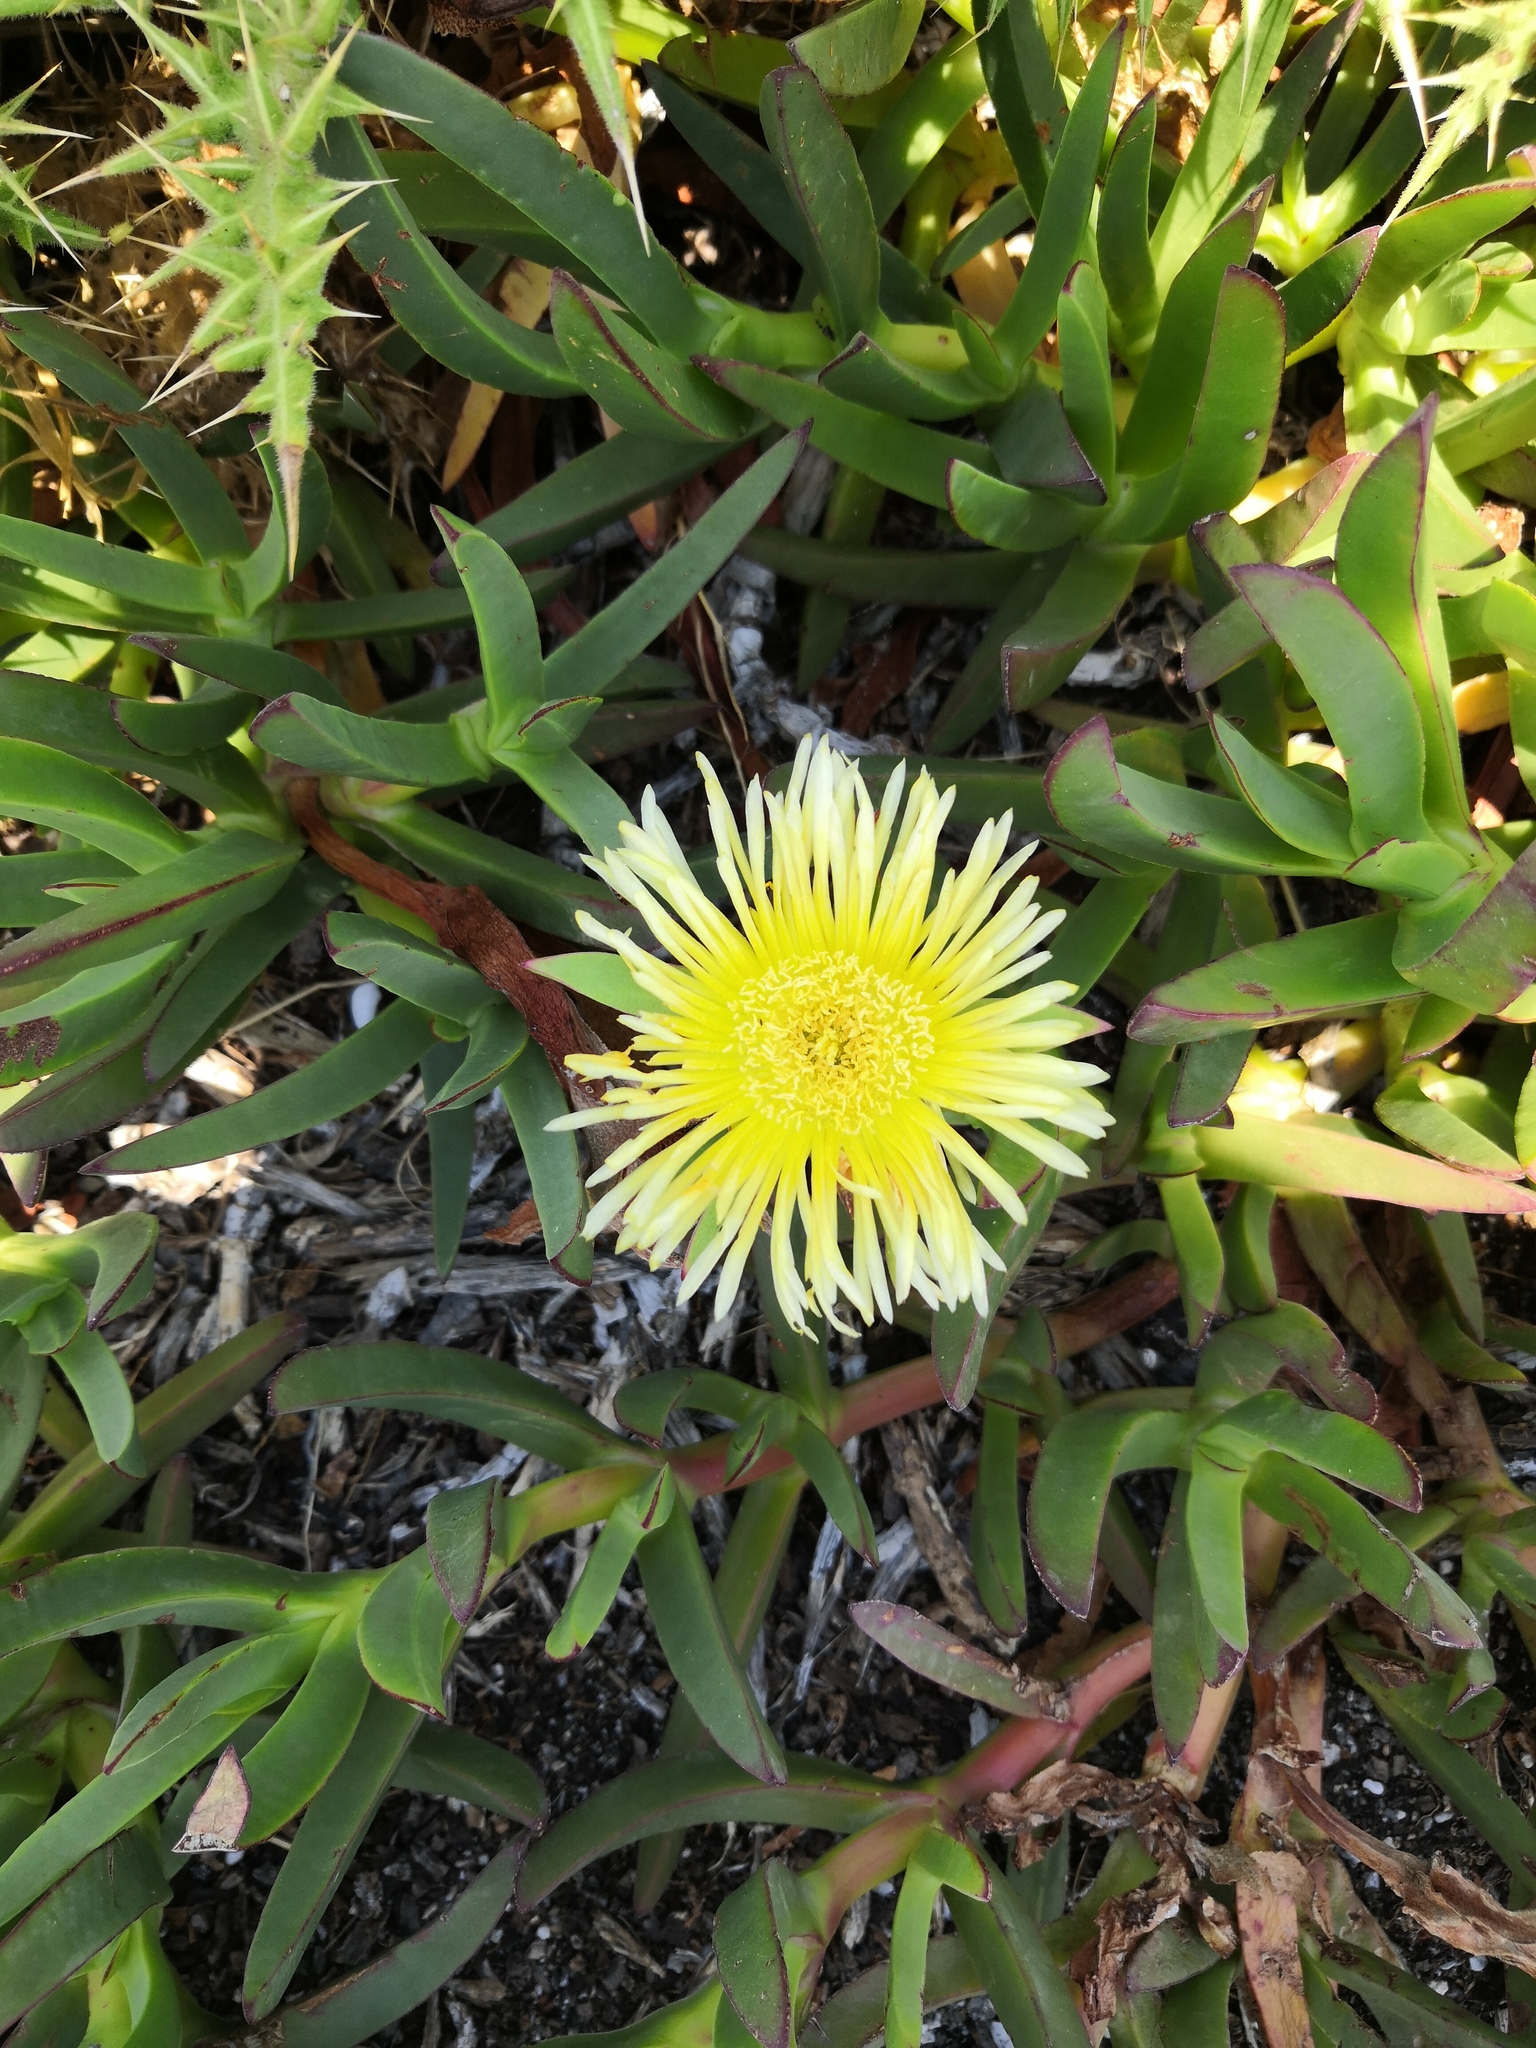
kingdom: Plantae
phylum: Tracheophyta
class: Magnoliopsida
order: Caryophyllales
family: Aizoaceae
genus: Carpobrotus
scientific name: Carpobrotus edulis
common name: Hottentot-fig
